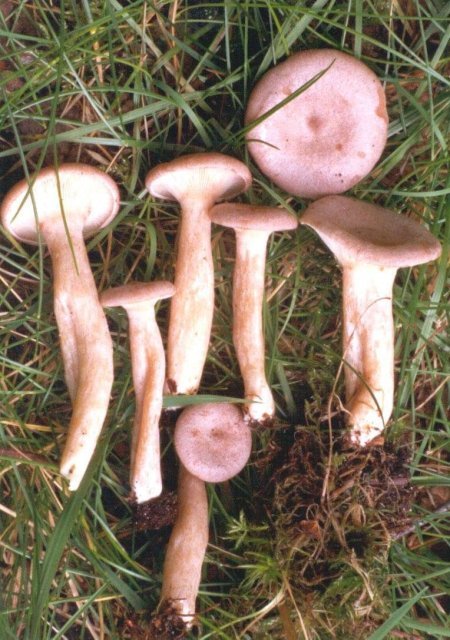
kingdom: Fungi
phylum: Basidiomycota
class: Agaricomycetes
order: Russulales
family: Russulaceae
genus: Lactarius
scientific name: Lactarius glyciosmus
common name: Coconut milkcap
